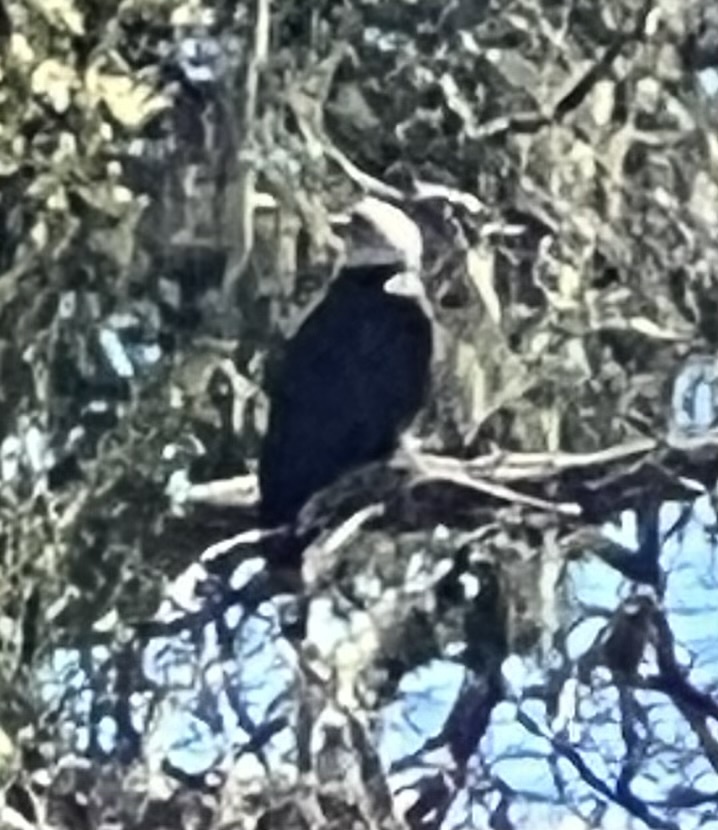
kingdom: Animalia
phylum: Chordata
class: Aves
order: Accipitriformes
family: Accipitridae
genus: Haliaeetus
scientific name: Haliaeetus leucocephalus
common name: Bald eagle
